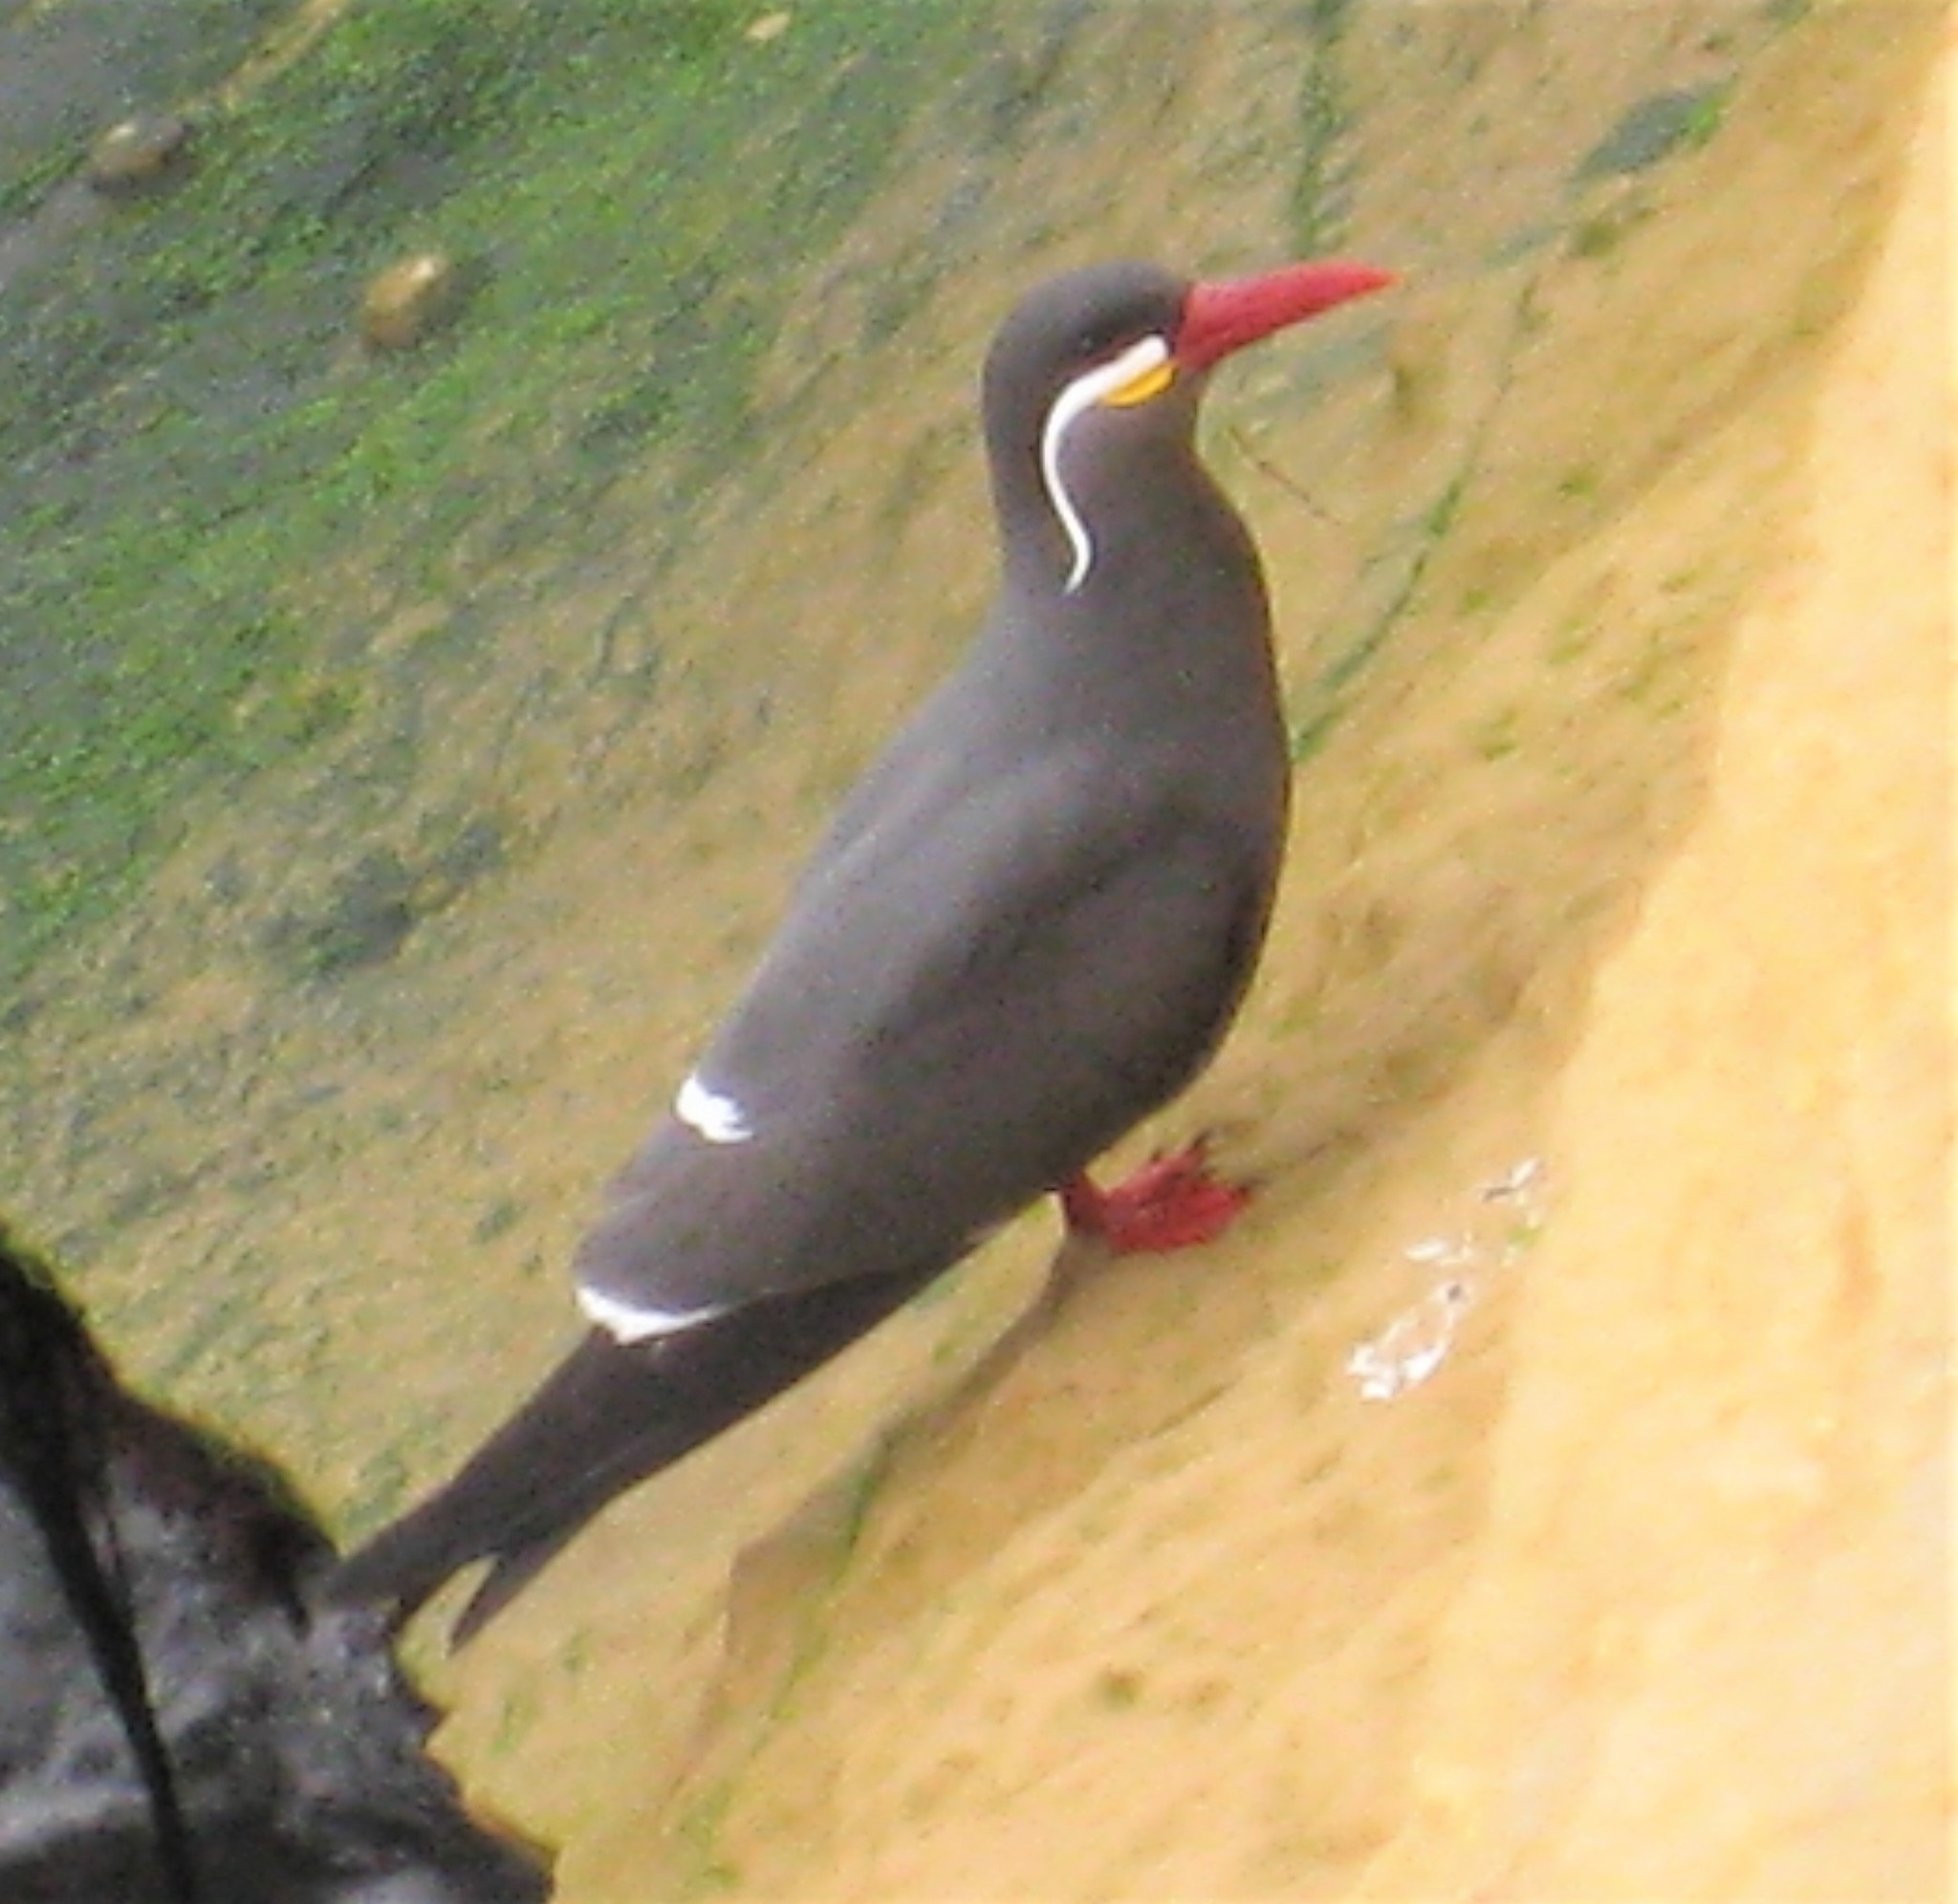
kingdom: Animalia
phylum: Chordata
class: Aves
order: Charadriiformes
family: Laridae
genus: Larosterna
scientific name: Larosterna inca
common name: Inca tern
